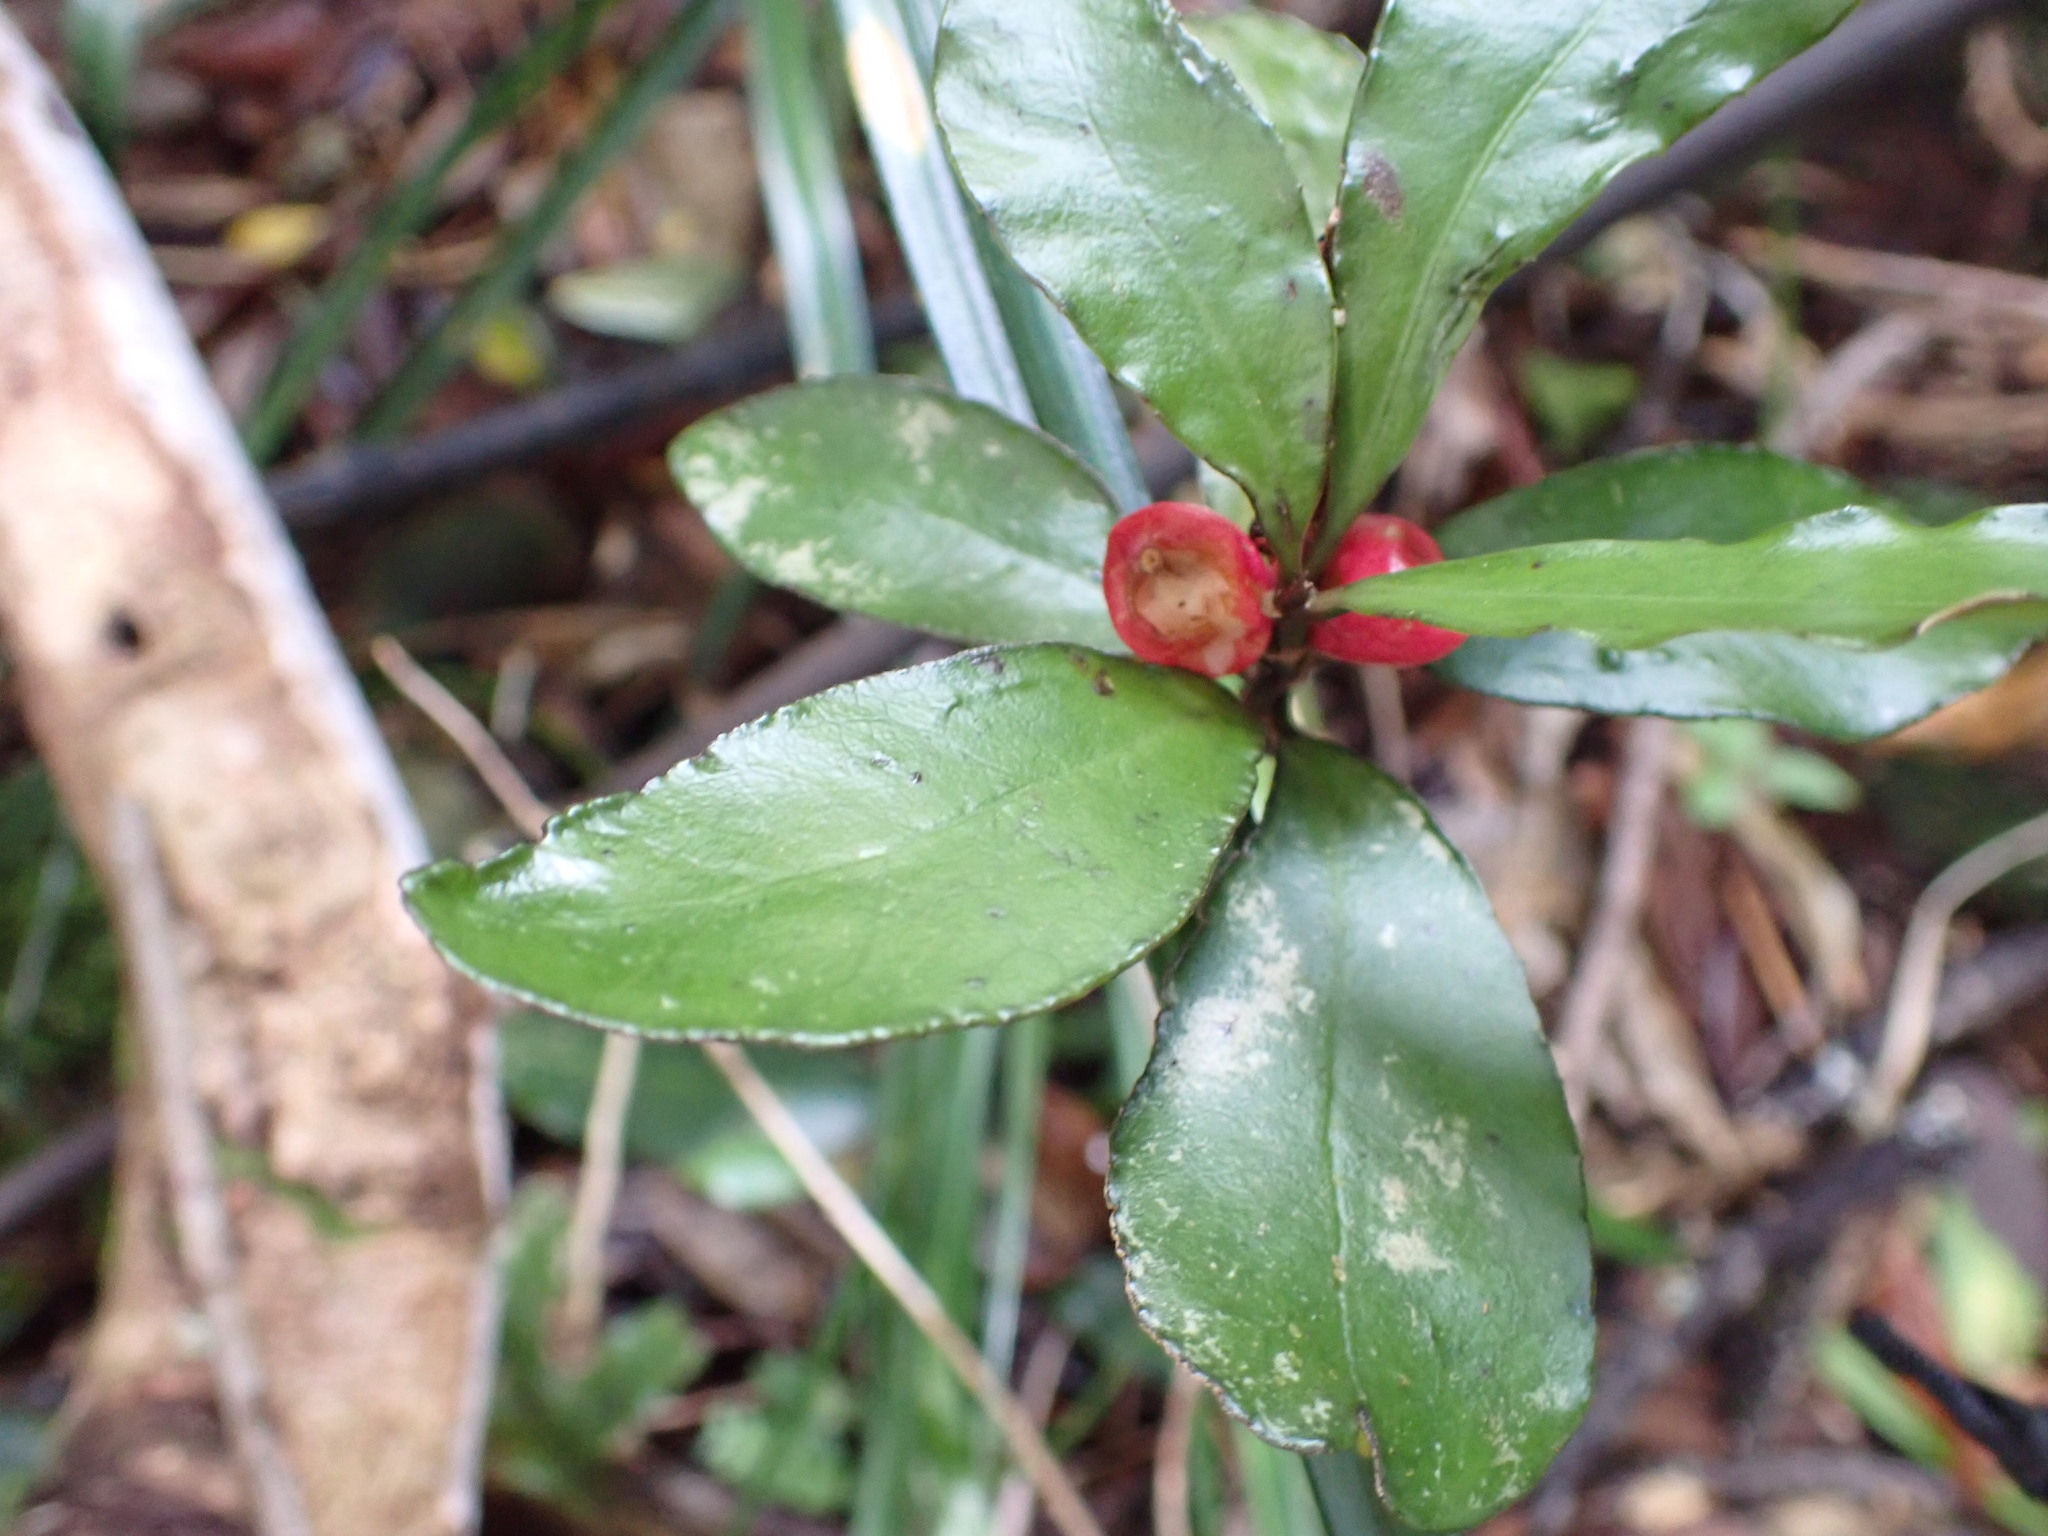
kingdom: Plantae
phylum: Tracheophyta
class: Magnoliopsida
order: Asterales
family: Alseuosmiaceae
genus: Alseuosmia
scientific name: Alseuosmia pusilla
